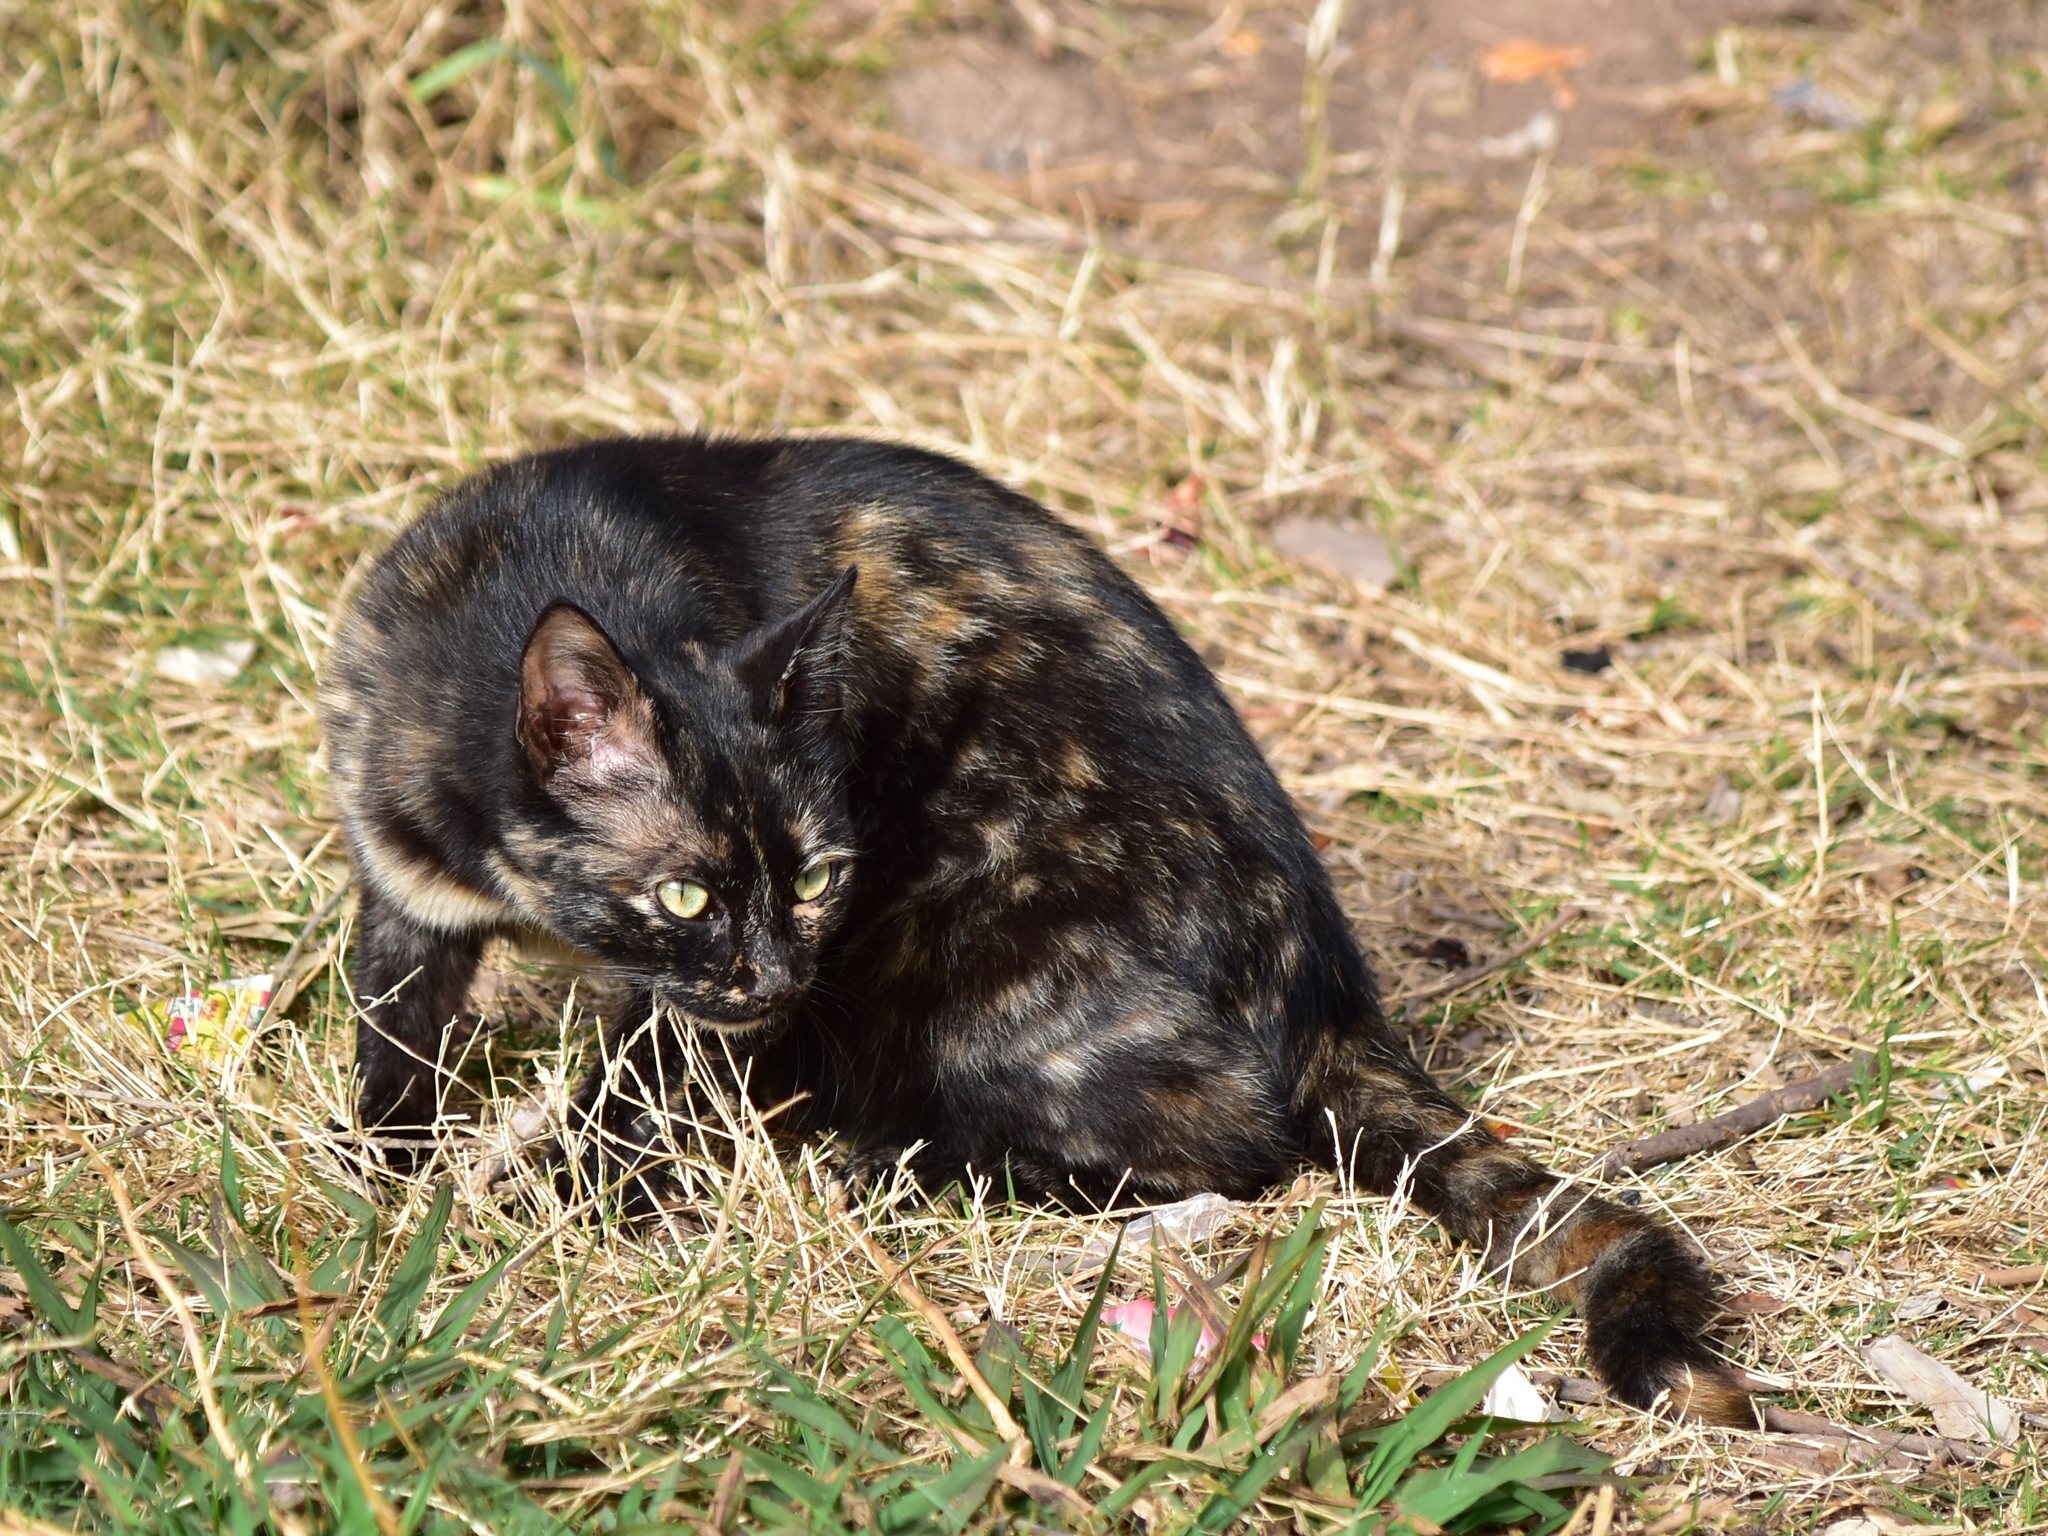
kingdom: Animalia
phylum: Chordata
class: Mammalia
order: Carnivora
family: Felidae
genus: Felis
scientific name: Felis catus
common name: Domestic cat
